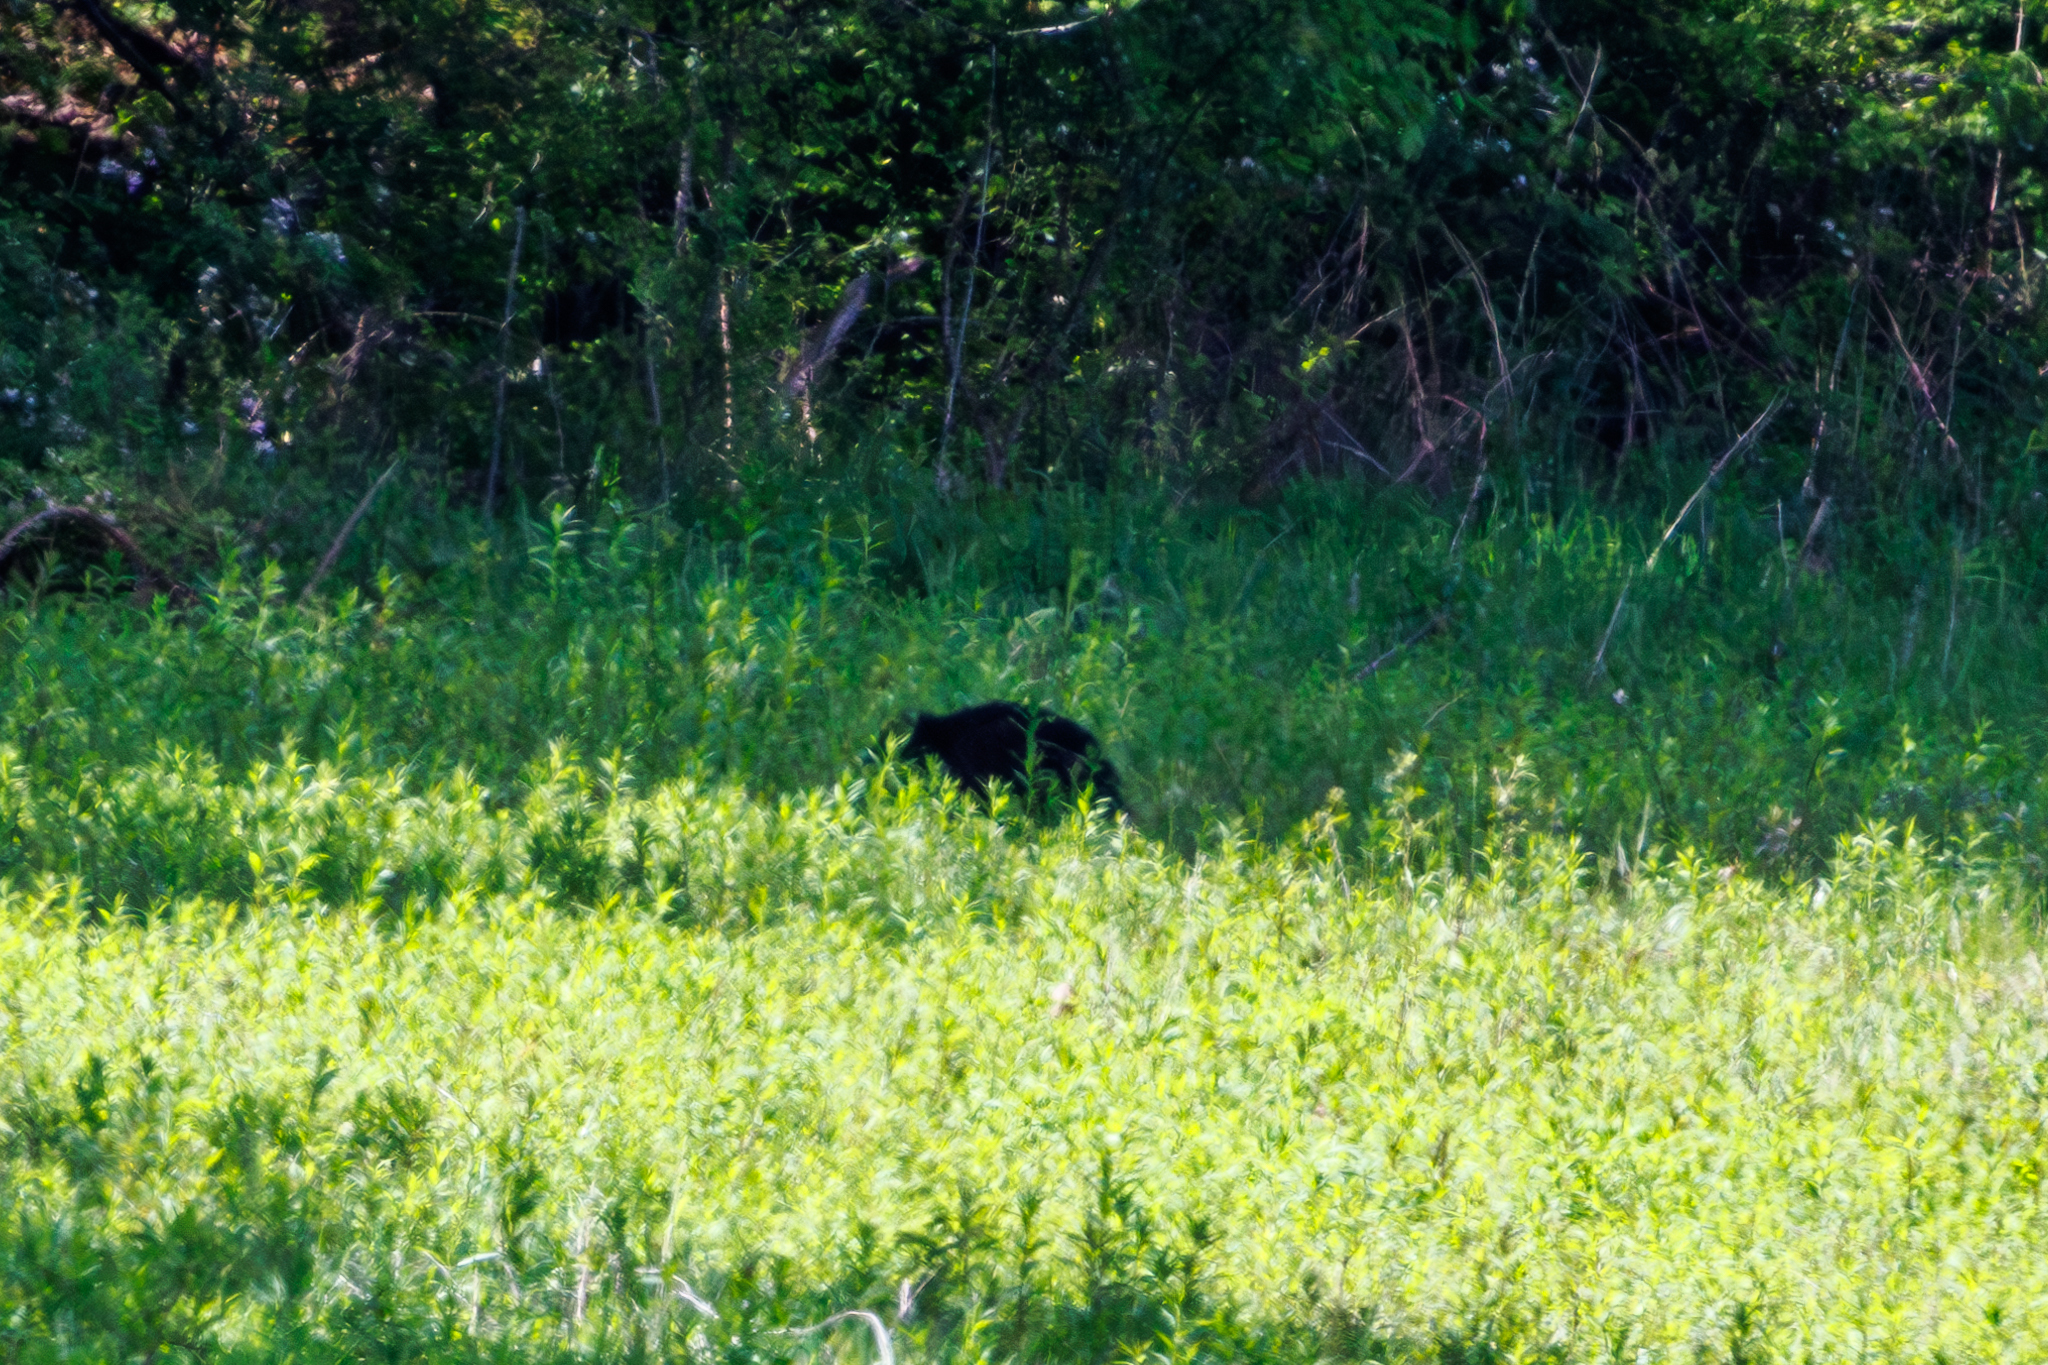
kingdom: Animalia
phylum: Chordata
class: Mammalia
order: Carnivora
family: Ursidae
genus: Ursus
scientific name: Ursus americanus
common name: American black bear
